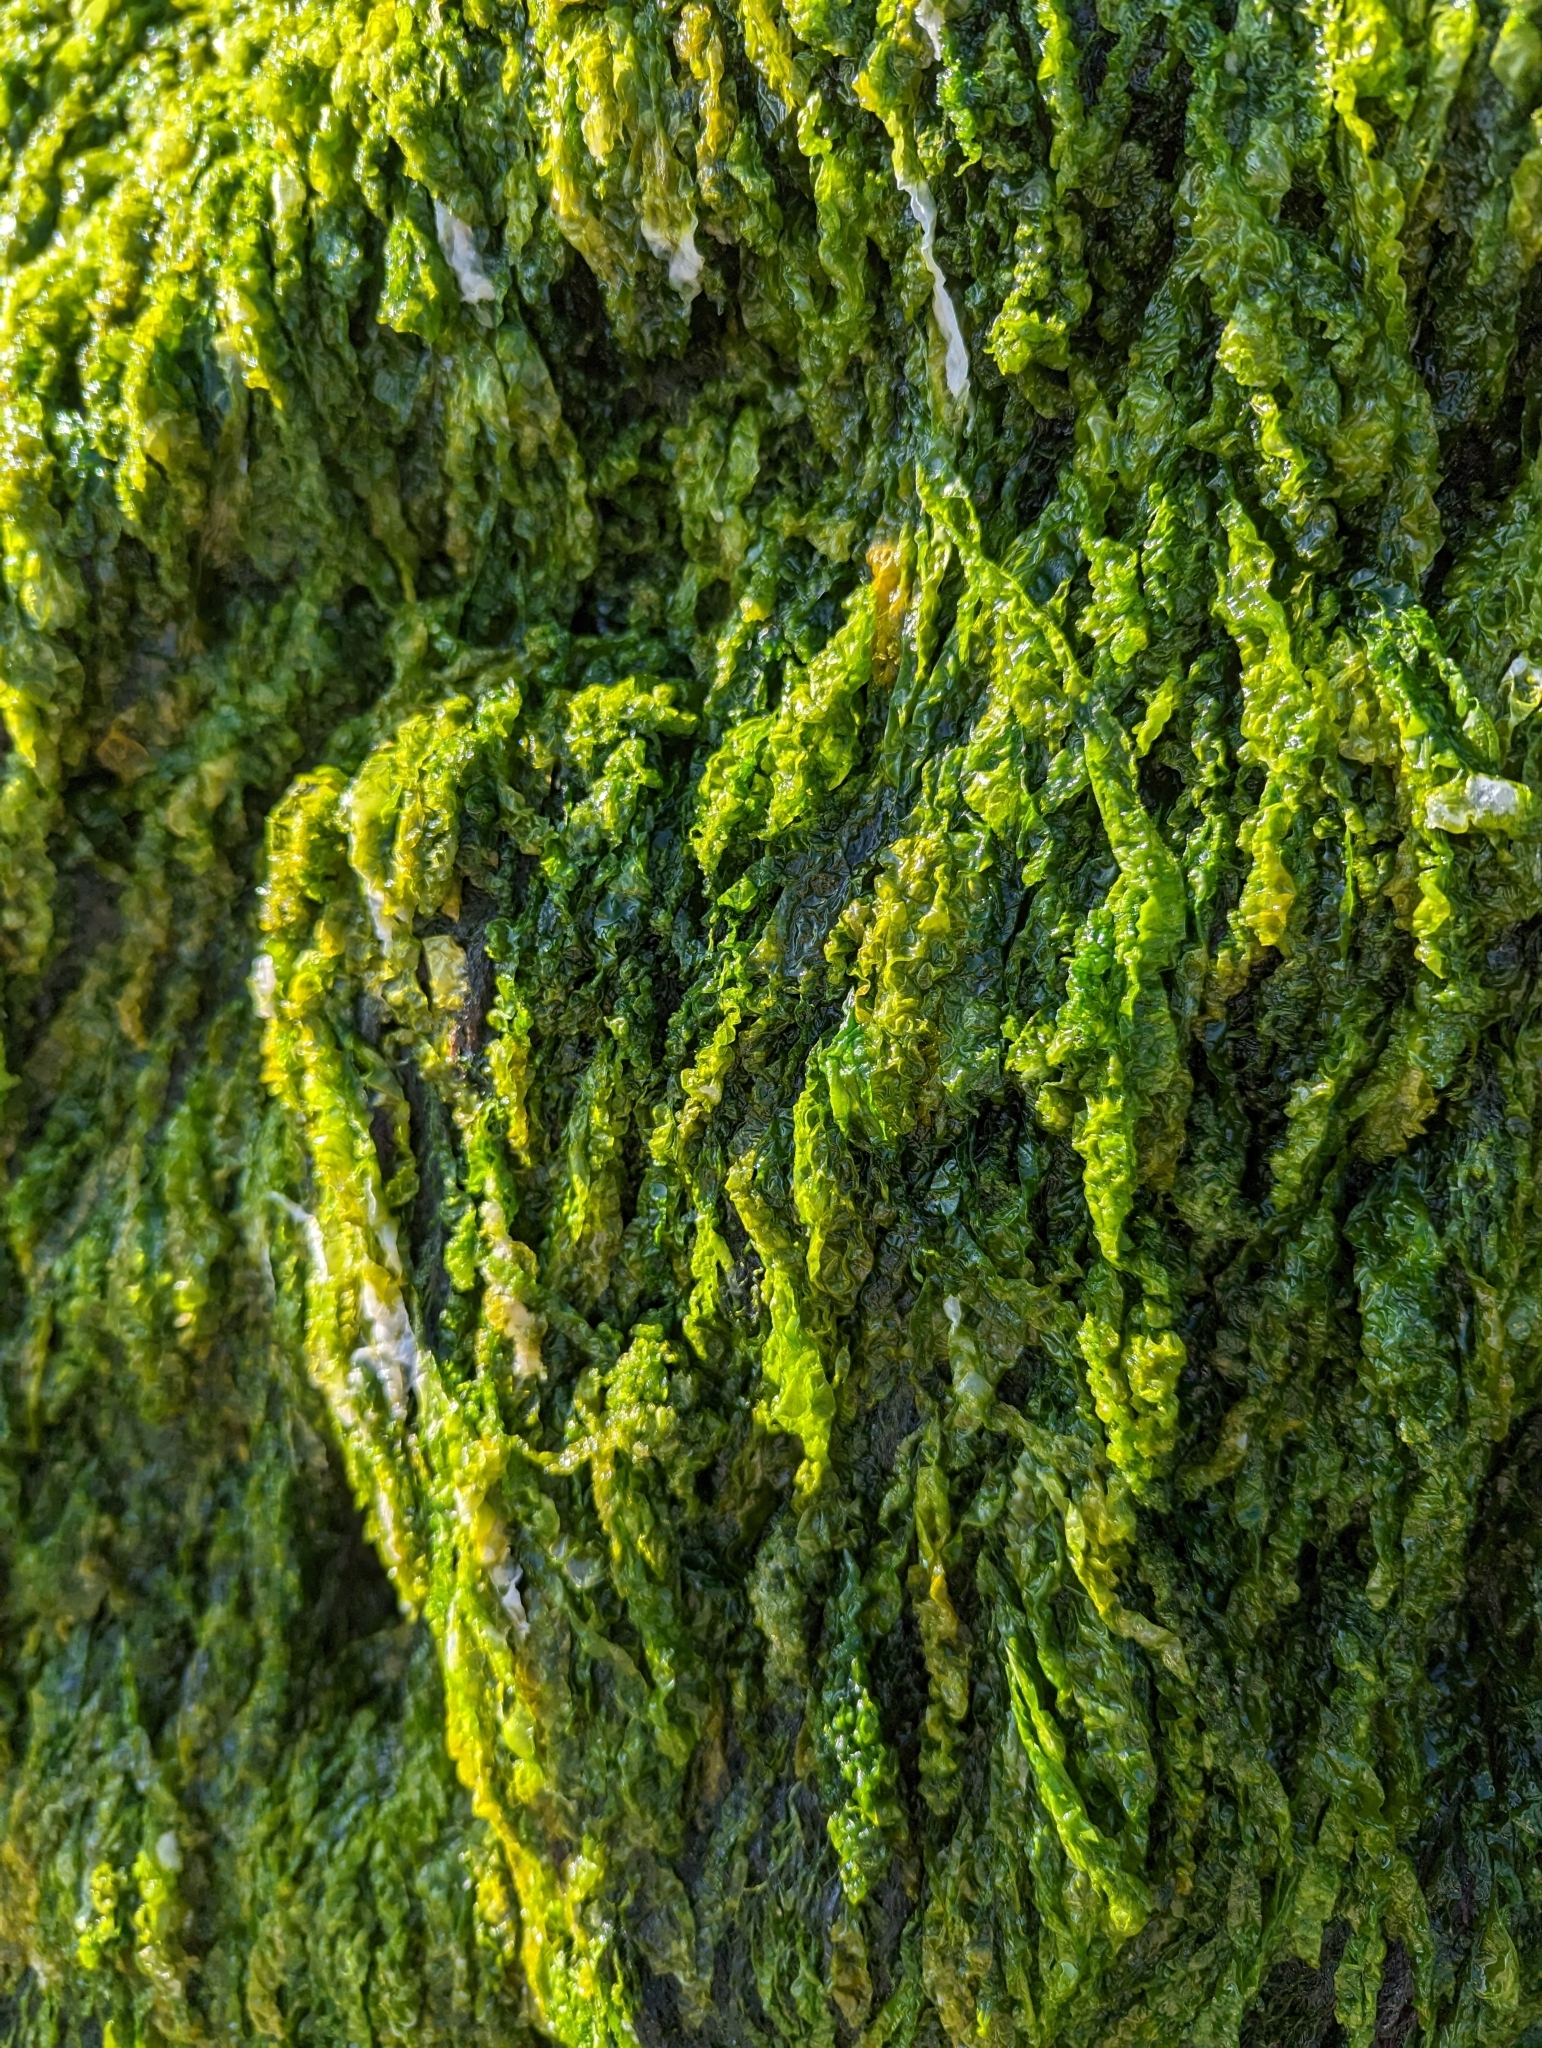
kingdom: Plantae
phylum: Chlorophyta
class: Ulvophyceae
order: Ulvales
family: Ulvaceae
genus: Ulva
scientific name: Ulva intestinalis
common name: Gut weed
